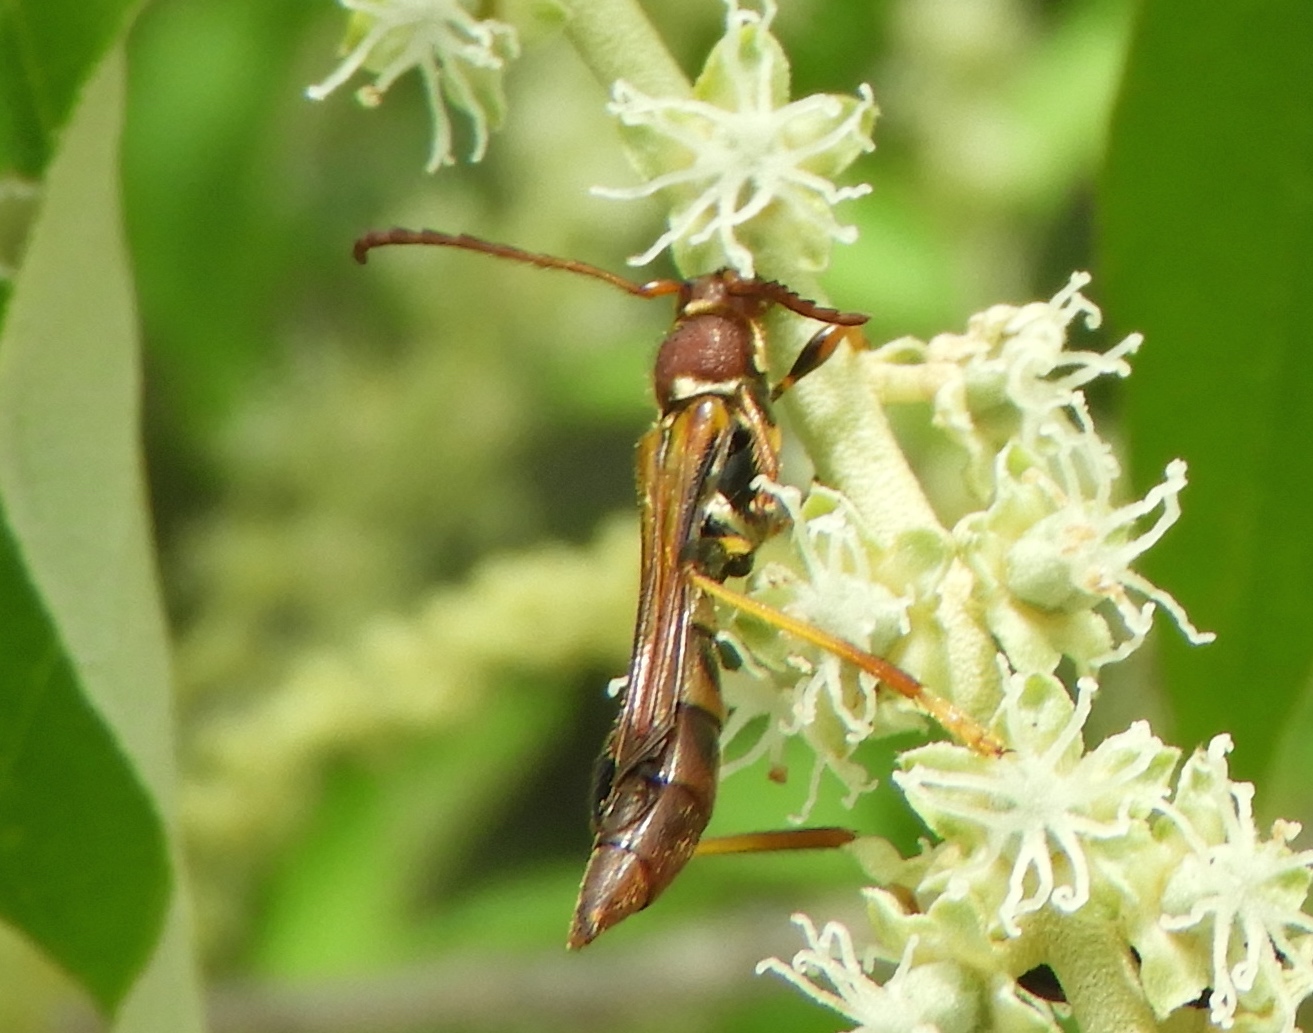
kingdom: Animalia
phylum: Arthropoda
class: Insecta
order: Coleoptera
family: Cerambycidae
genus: Odontocera
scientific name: Odontocera aurocincta
